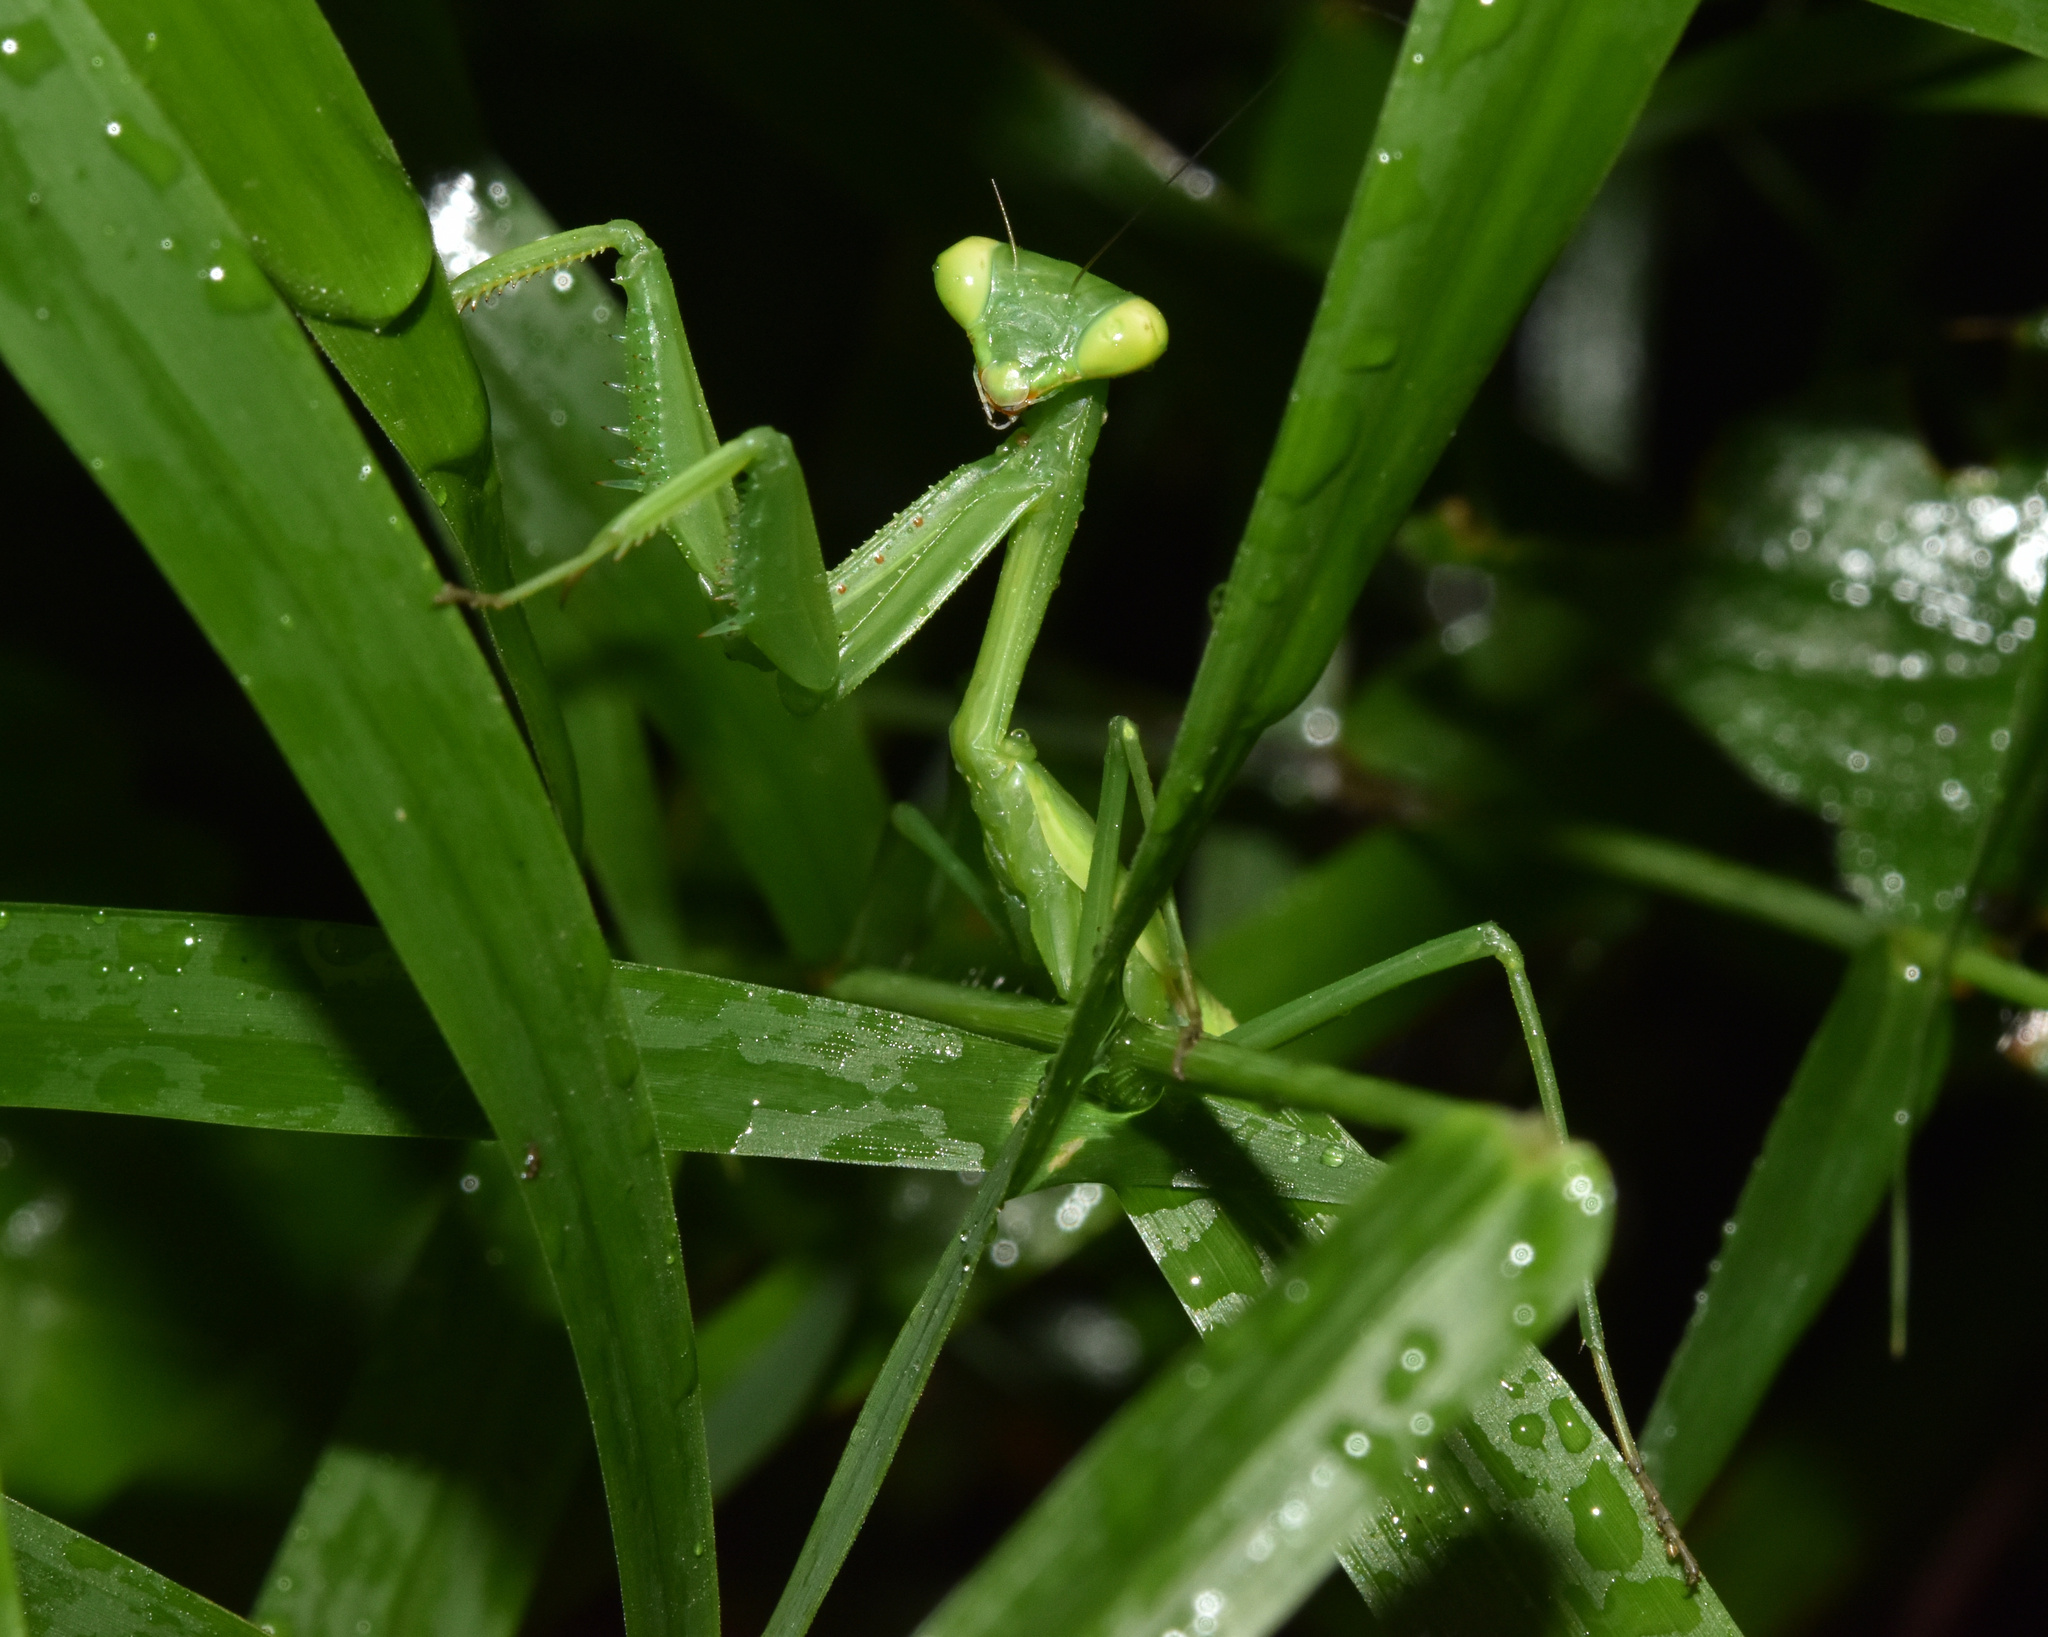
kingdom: Animalia
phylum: Arthropoda
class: Insecta
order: Mantodea
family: Miomantidae
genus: Miomantis
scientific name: Miomantis caffra
